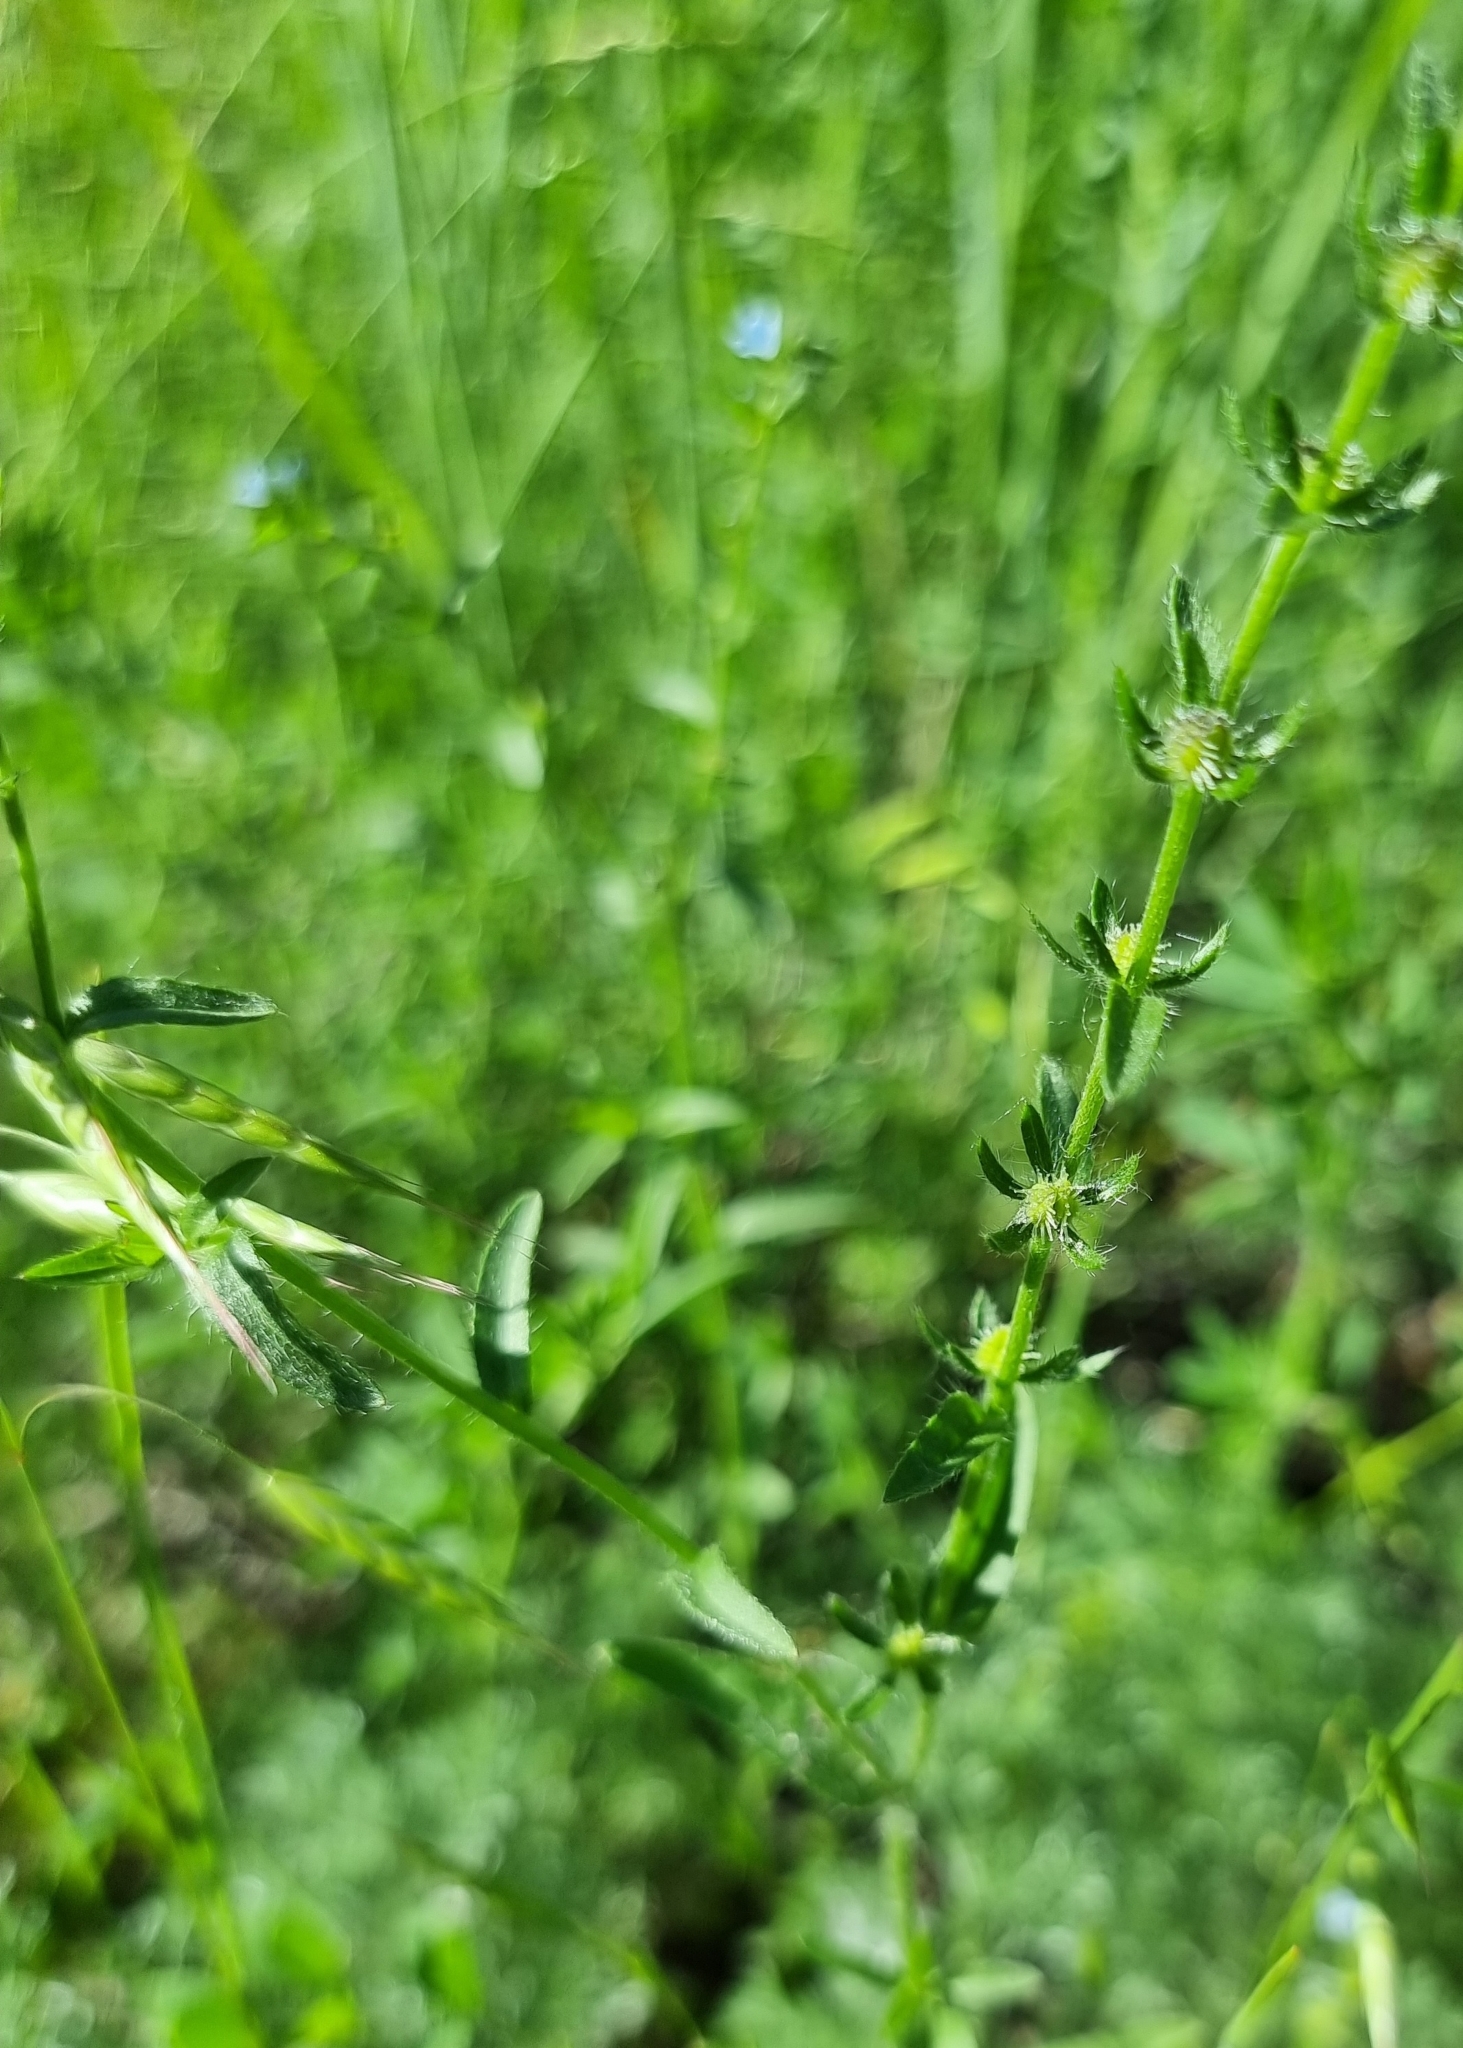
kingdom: Plantae
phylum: Tracheophyta
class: Magnoliopsida
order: Boraginales
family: Boraginaceae
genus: Lappula
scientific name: Lappula squarrosa
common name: European stickseed
